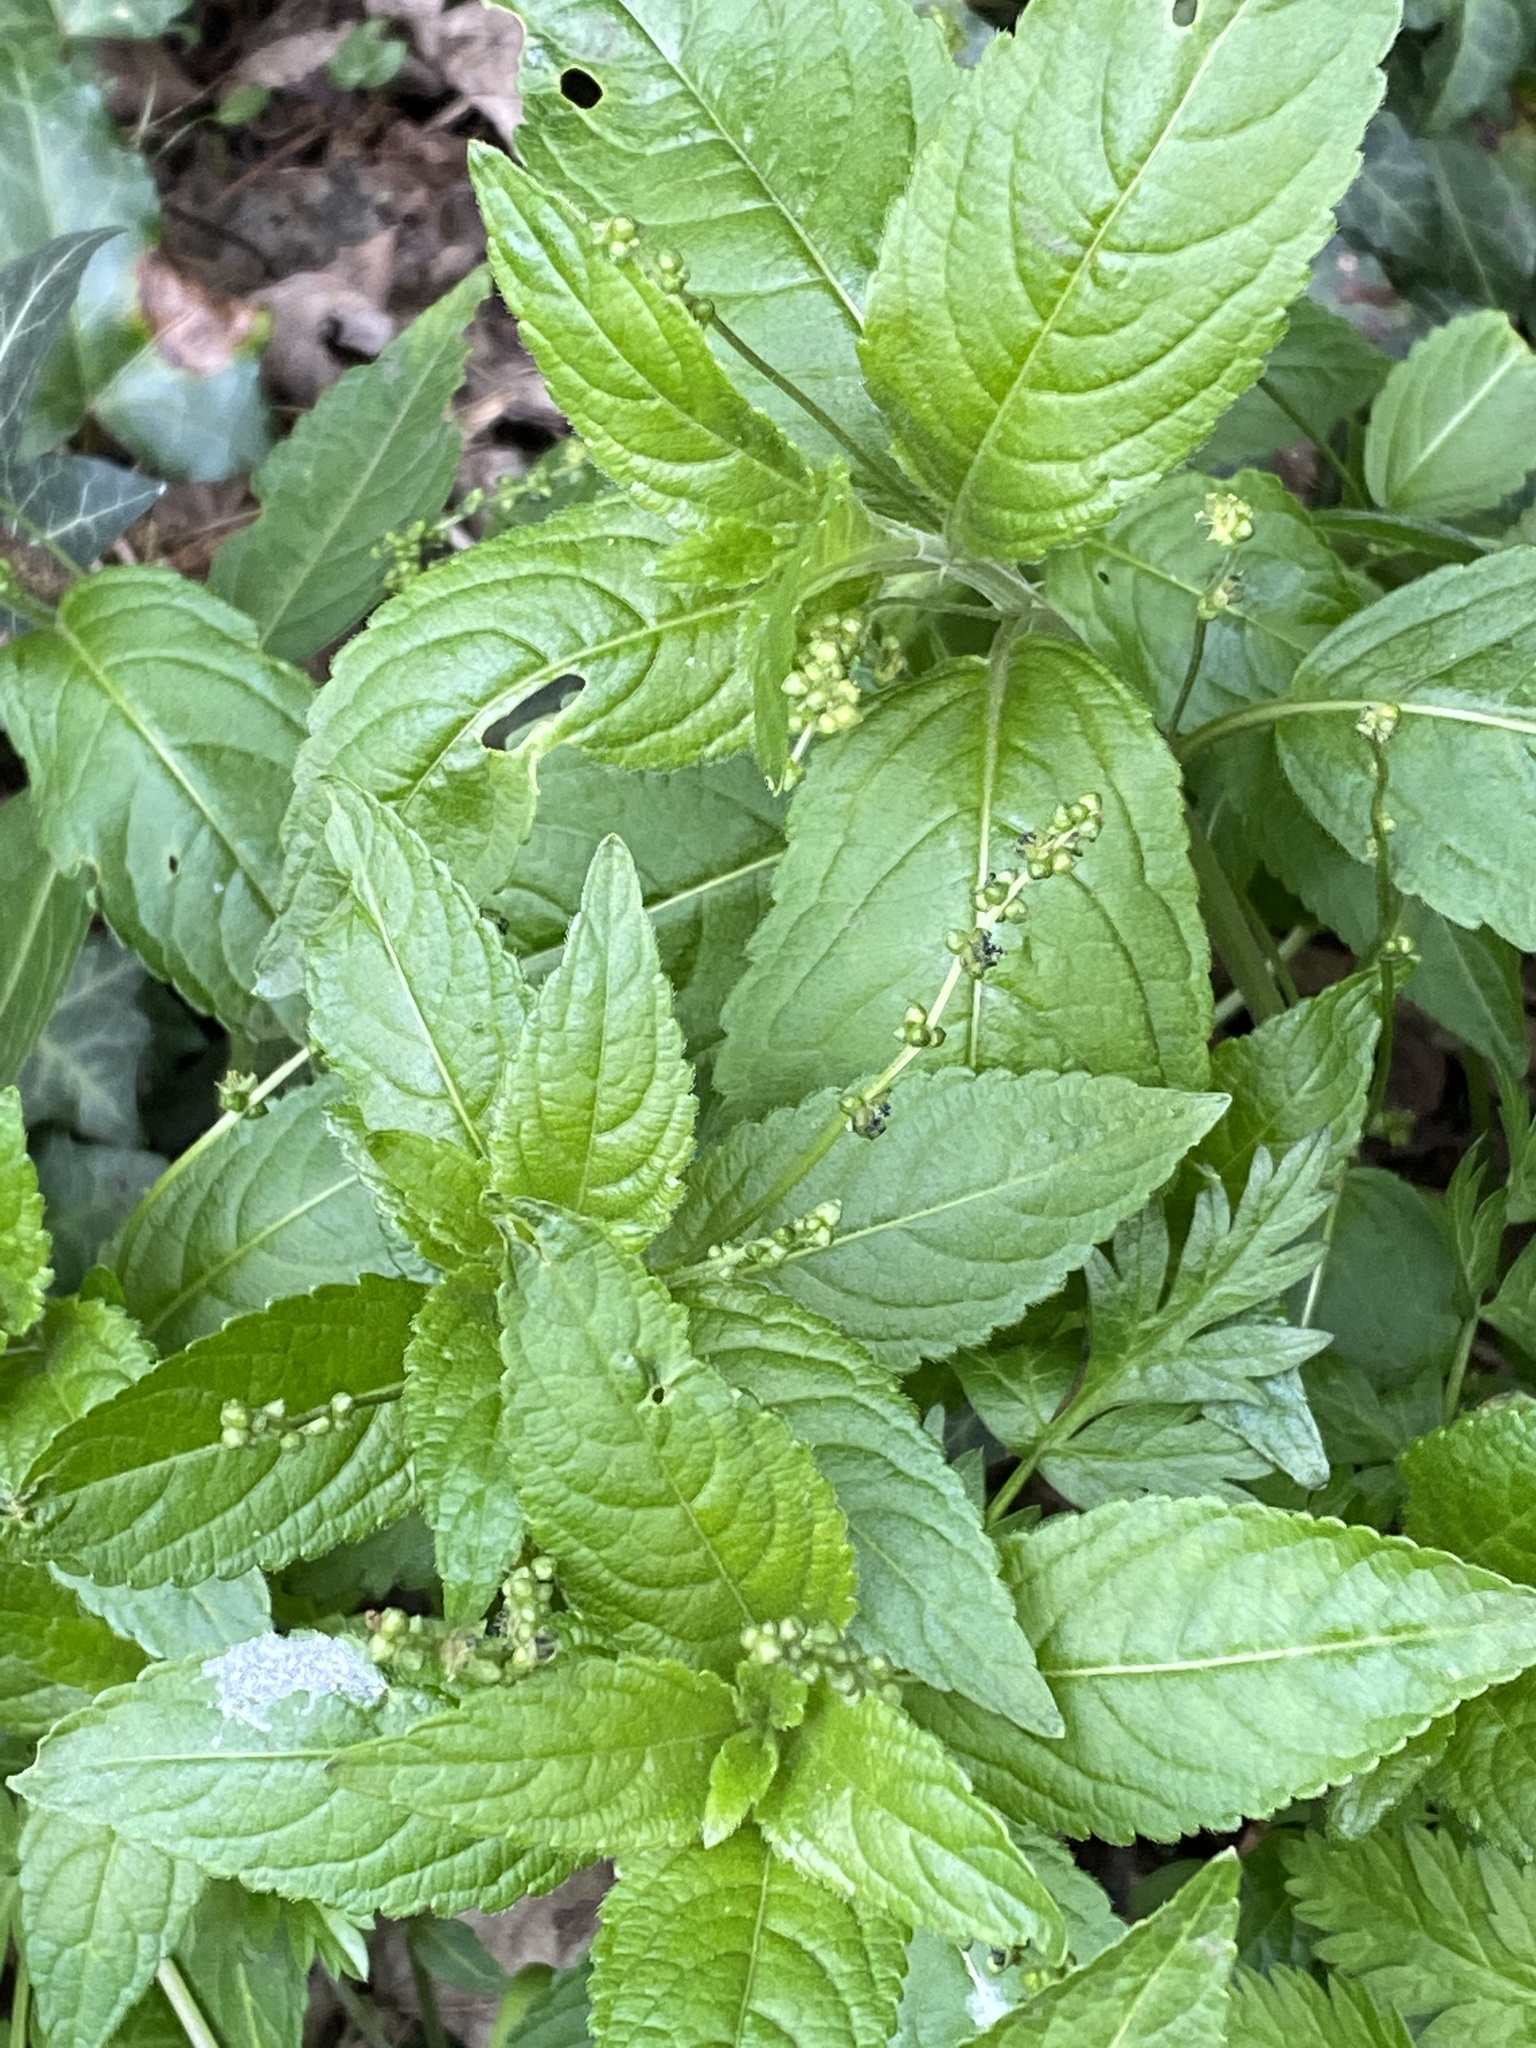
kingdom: Plantae
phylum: Tracheophyta
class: Magnoliopsida
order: Malpighiales
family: Euphorbiaceae
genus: Mercurialis
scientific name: Mercurialis perennis
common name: Dog mercury
